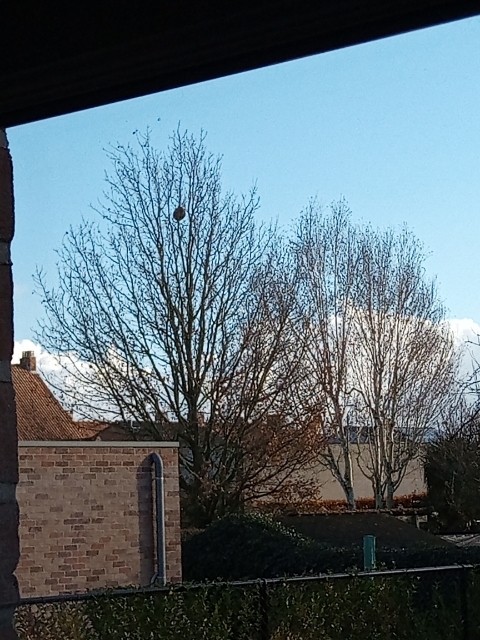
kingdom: Animalia
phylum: Arthropoda
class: Insecta
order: Hymenoptera
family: Vespidae
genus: Vespa
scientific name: Vespa velutina
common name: Asian hornet
